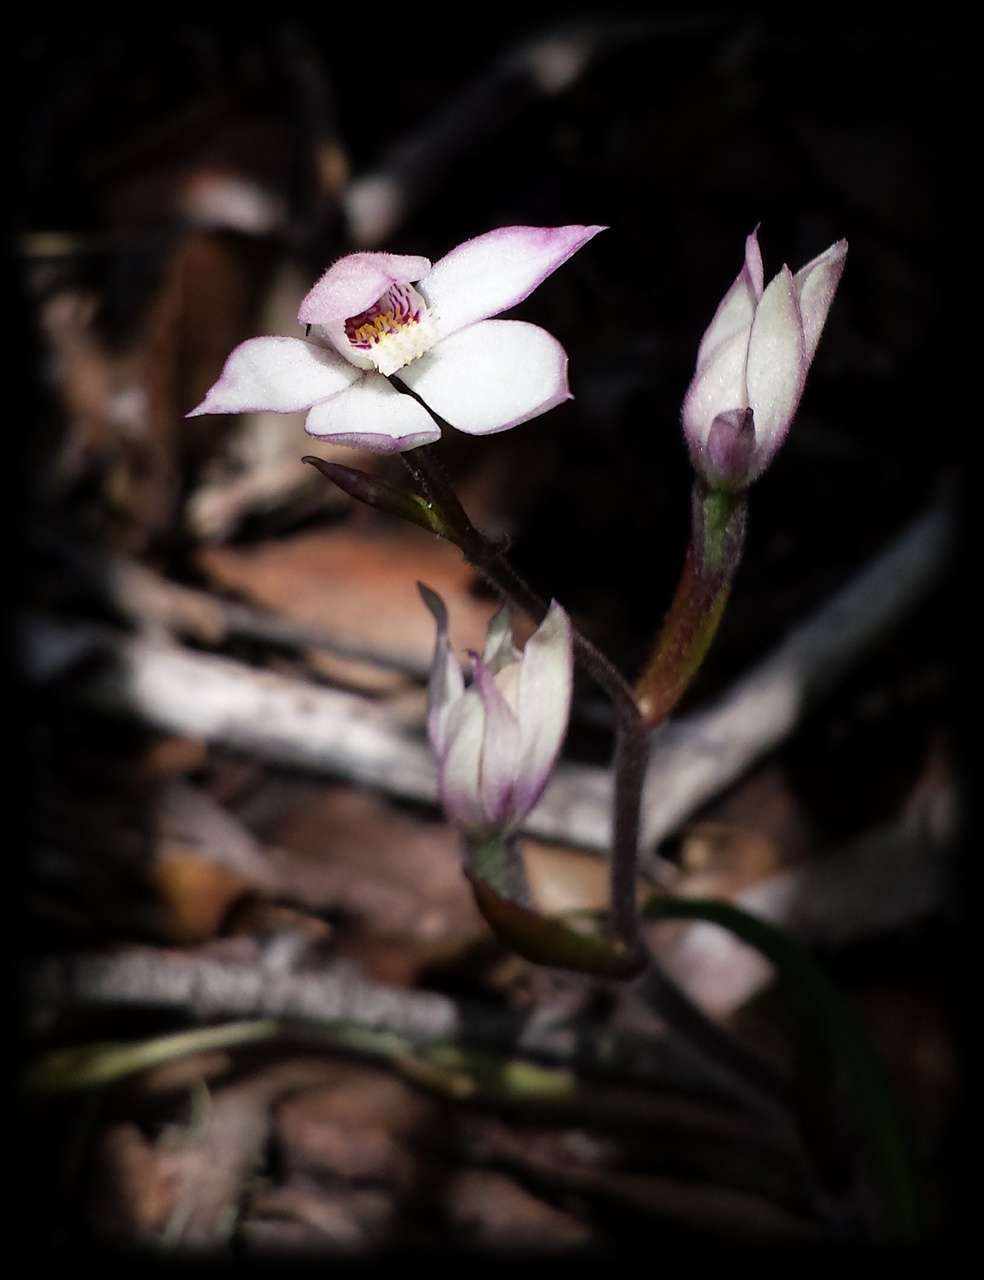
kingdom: Plantae
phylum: Tracheophyta
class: Liliopsida
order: Asparagales
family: Orchidaceae
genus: Caladenia
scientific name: Caladenia alpina
